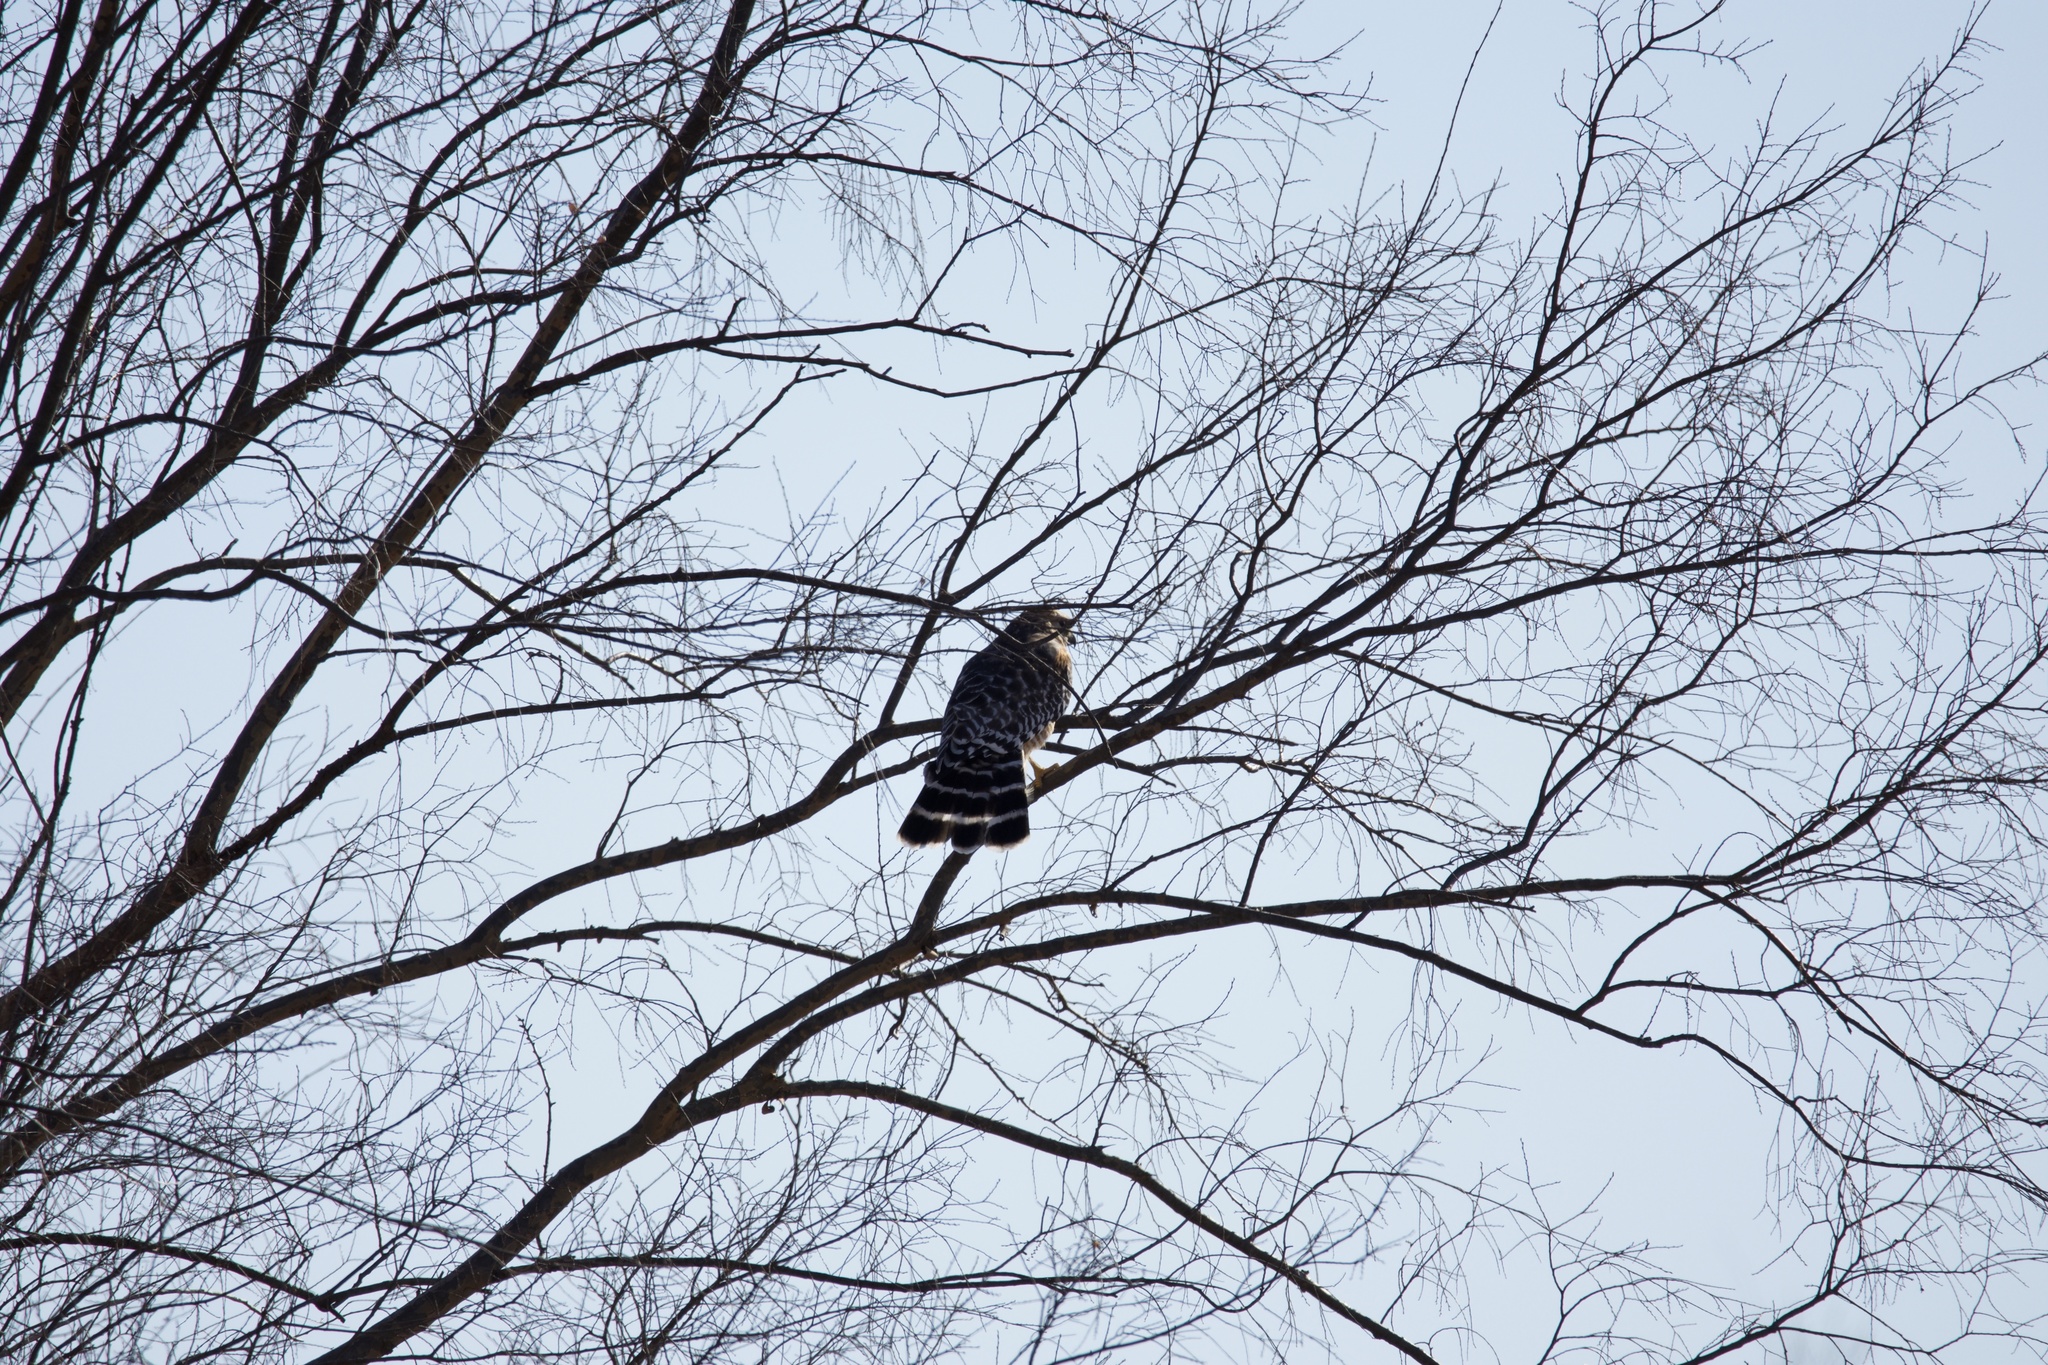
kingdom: Animalia
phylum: Chordata
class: Aves
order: Accipitriformes
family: Accipitridae
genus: Buteo
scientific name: Buteo lineatus
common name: Red-shouldered hawk
